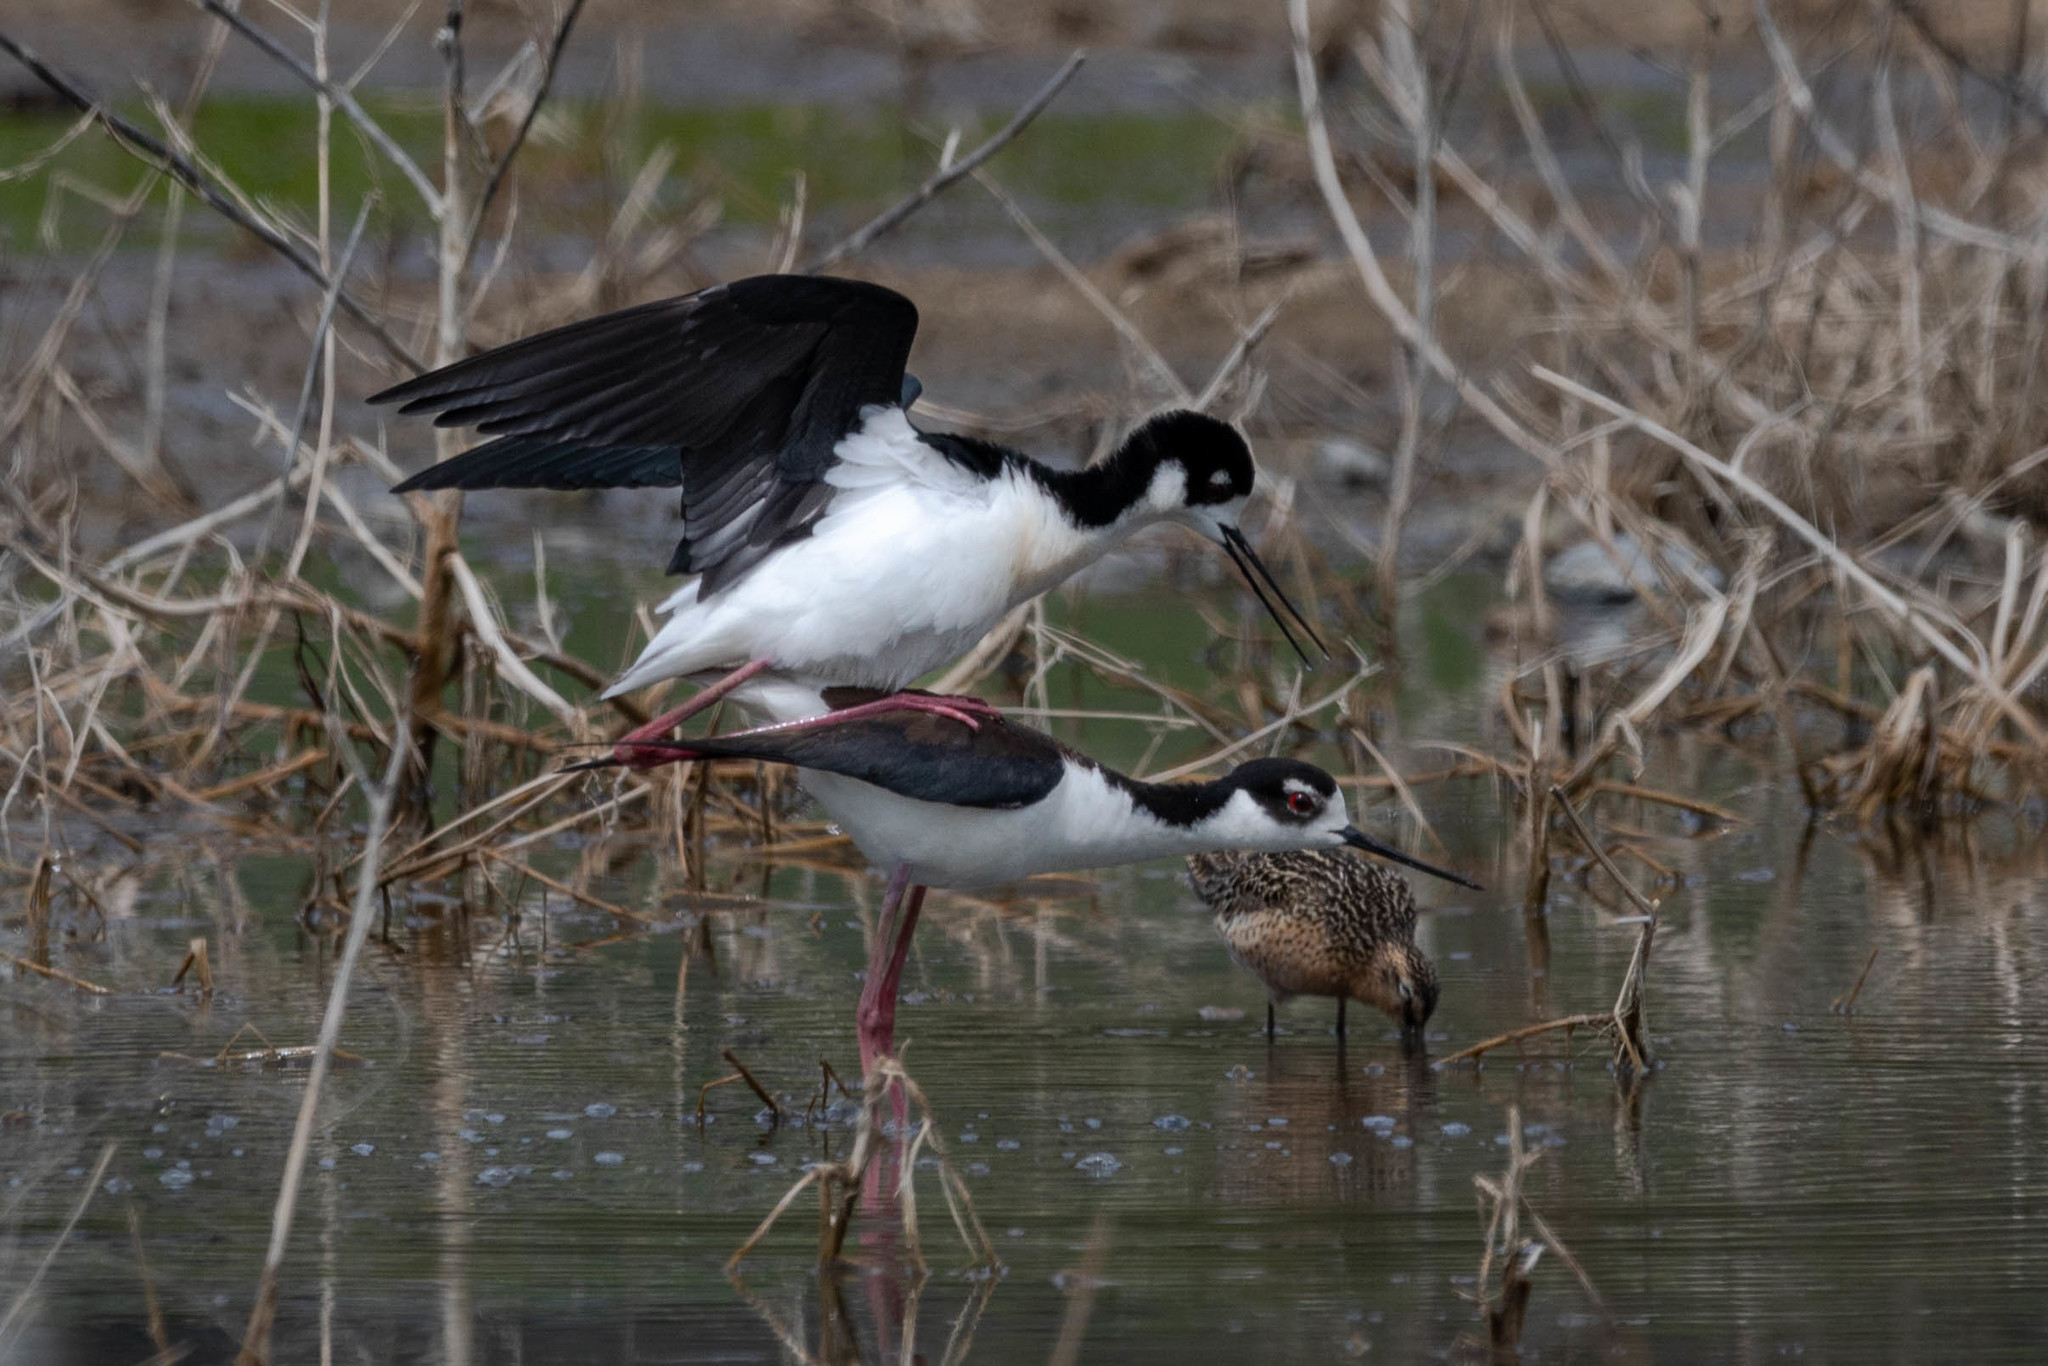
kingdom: Animalia
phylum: Chordata
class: Aves
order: Charadriiformes
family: Recurvirostridae
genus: Himantopus
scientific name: Himantopus mexicanus
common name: Black-necked stilt
